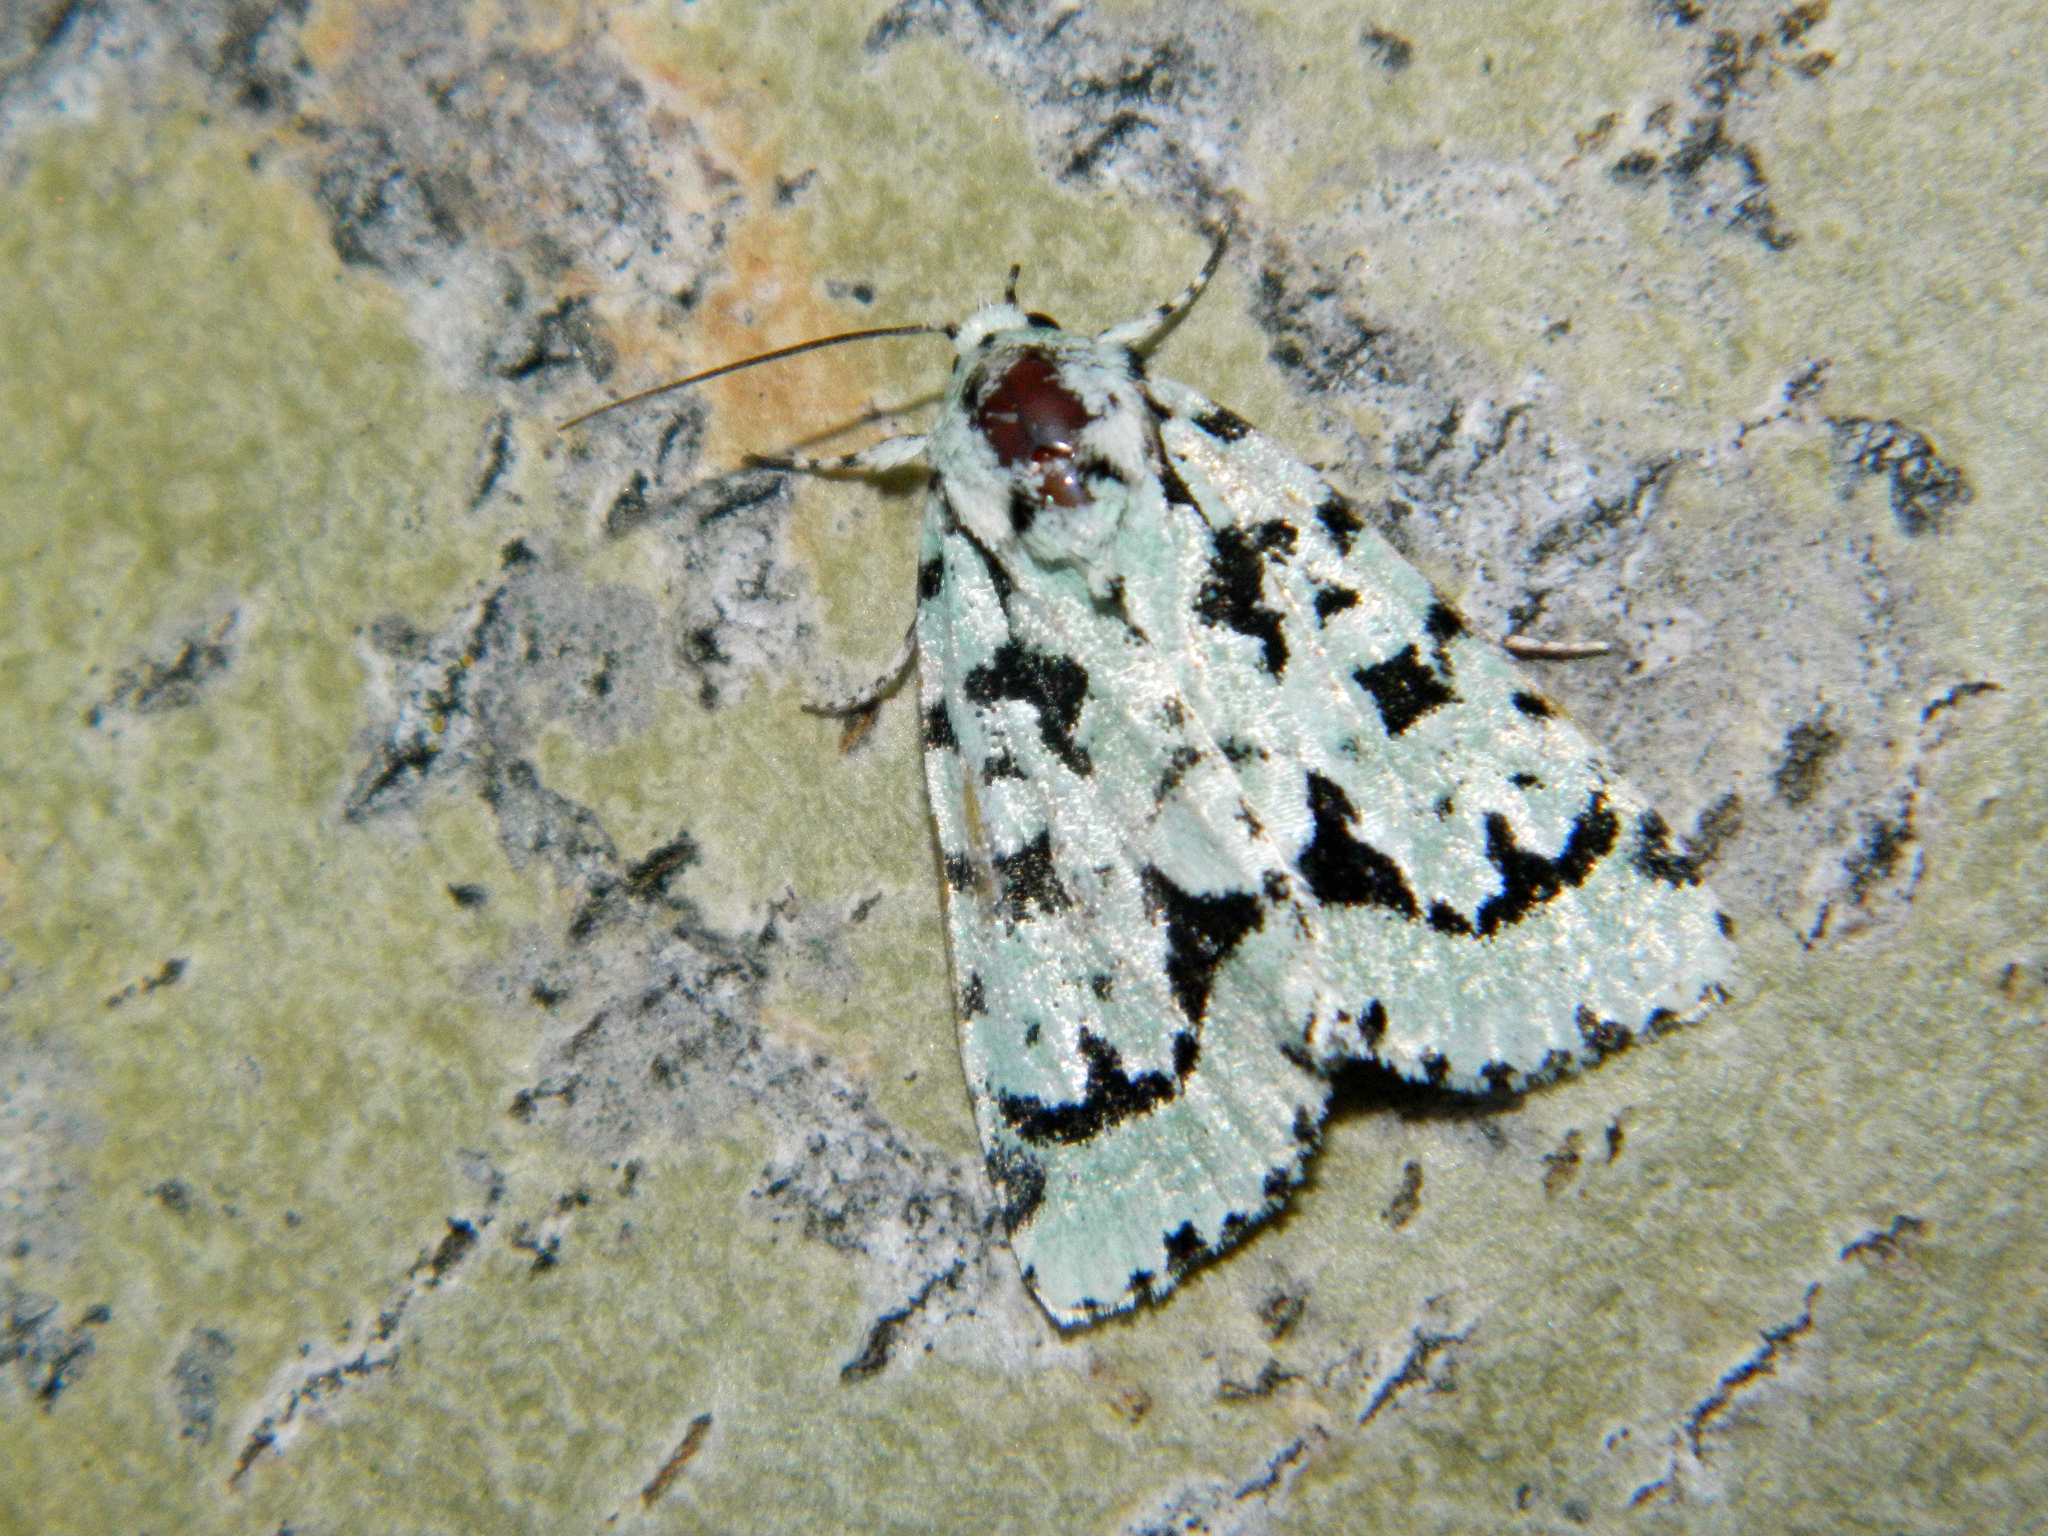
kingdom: Animalia
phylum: Arthropoda
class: Insecta
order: Lepidoptera
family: Noctuidae
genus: Acronicta
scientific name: Acronicta fallax
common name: Green marvel
